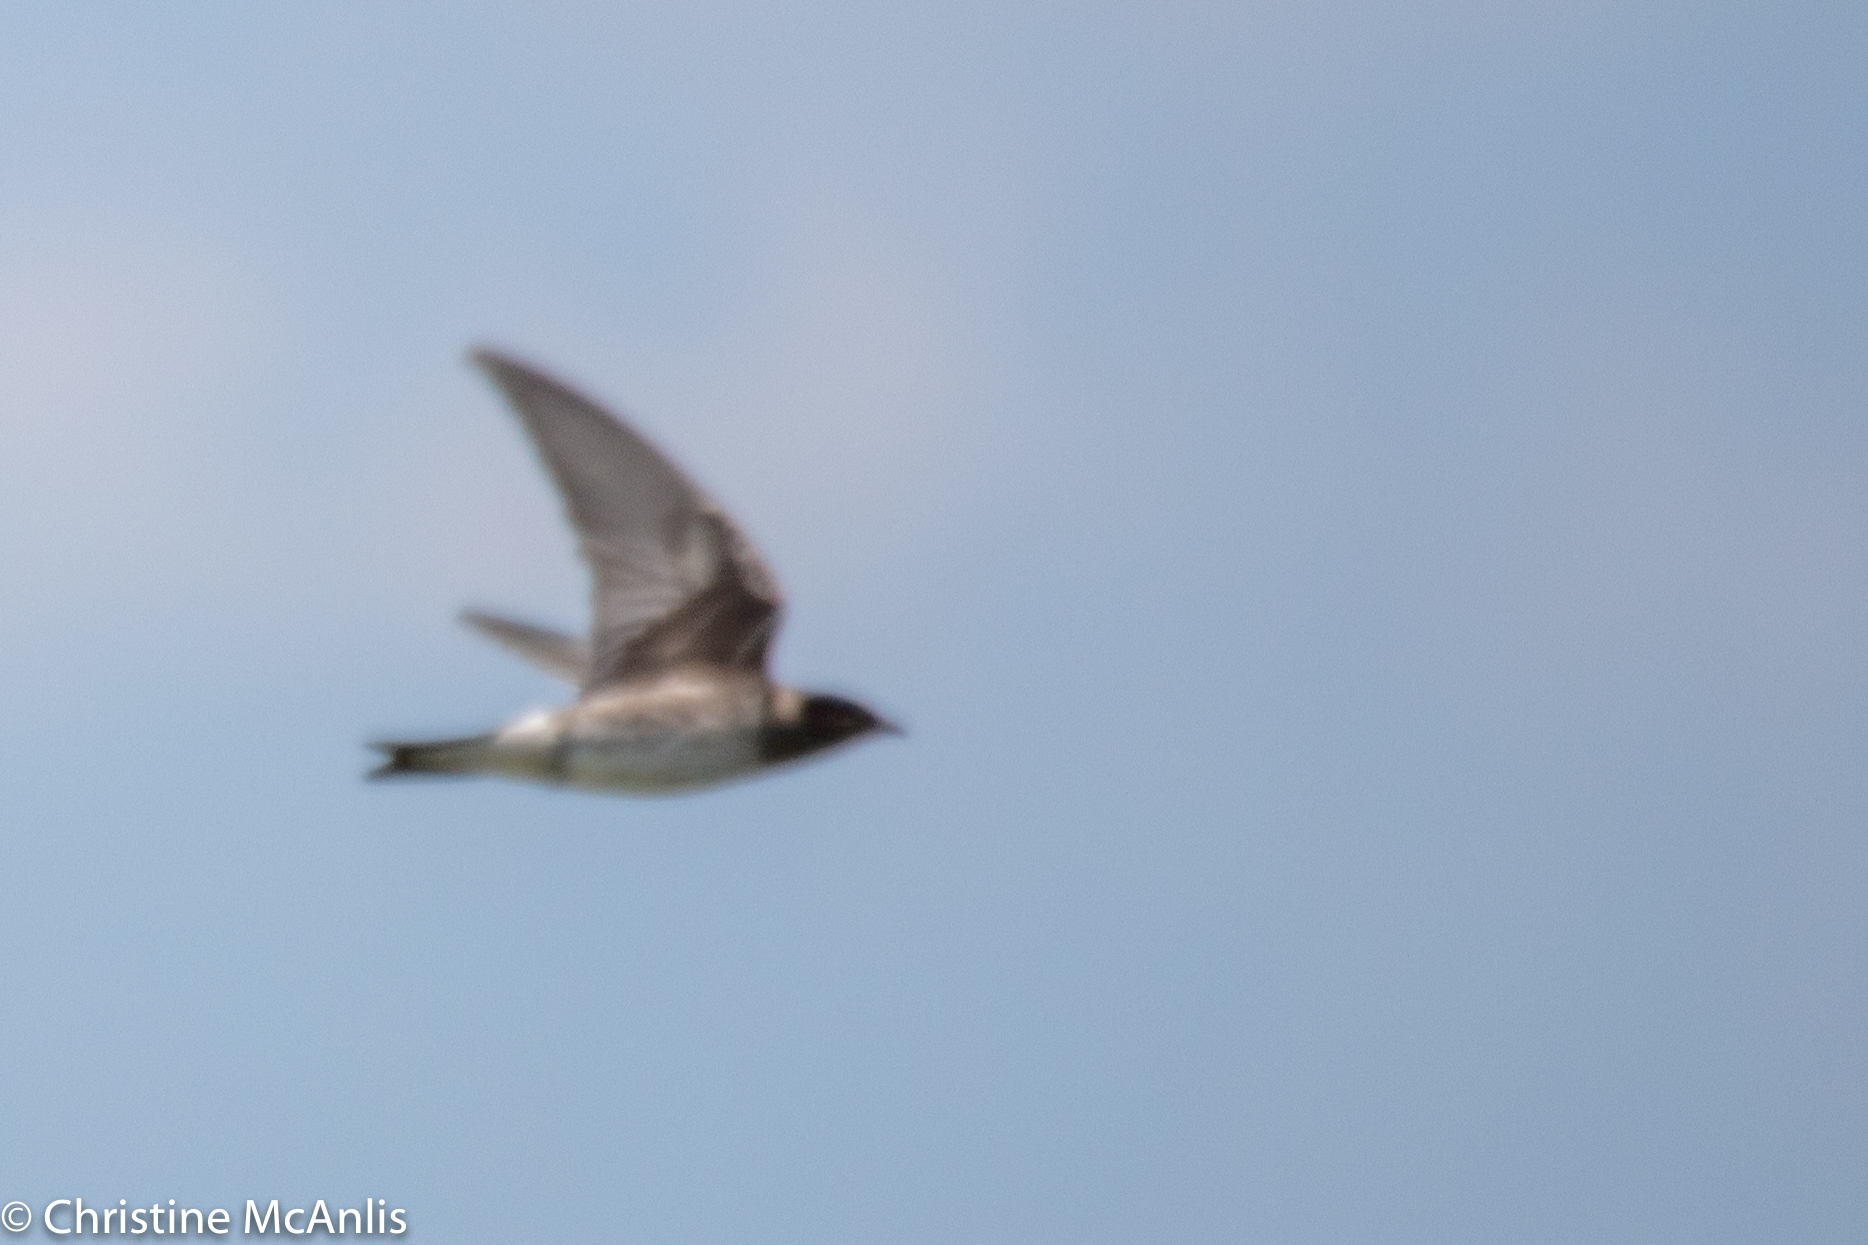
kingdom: Animalia
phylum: Chordata
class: Aves
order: Passeriformes
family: Hirundinidae
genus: Progne
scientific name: Progne subis
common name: Purple martin
